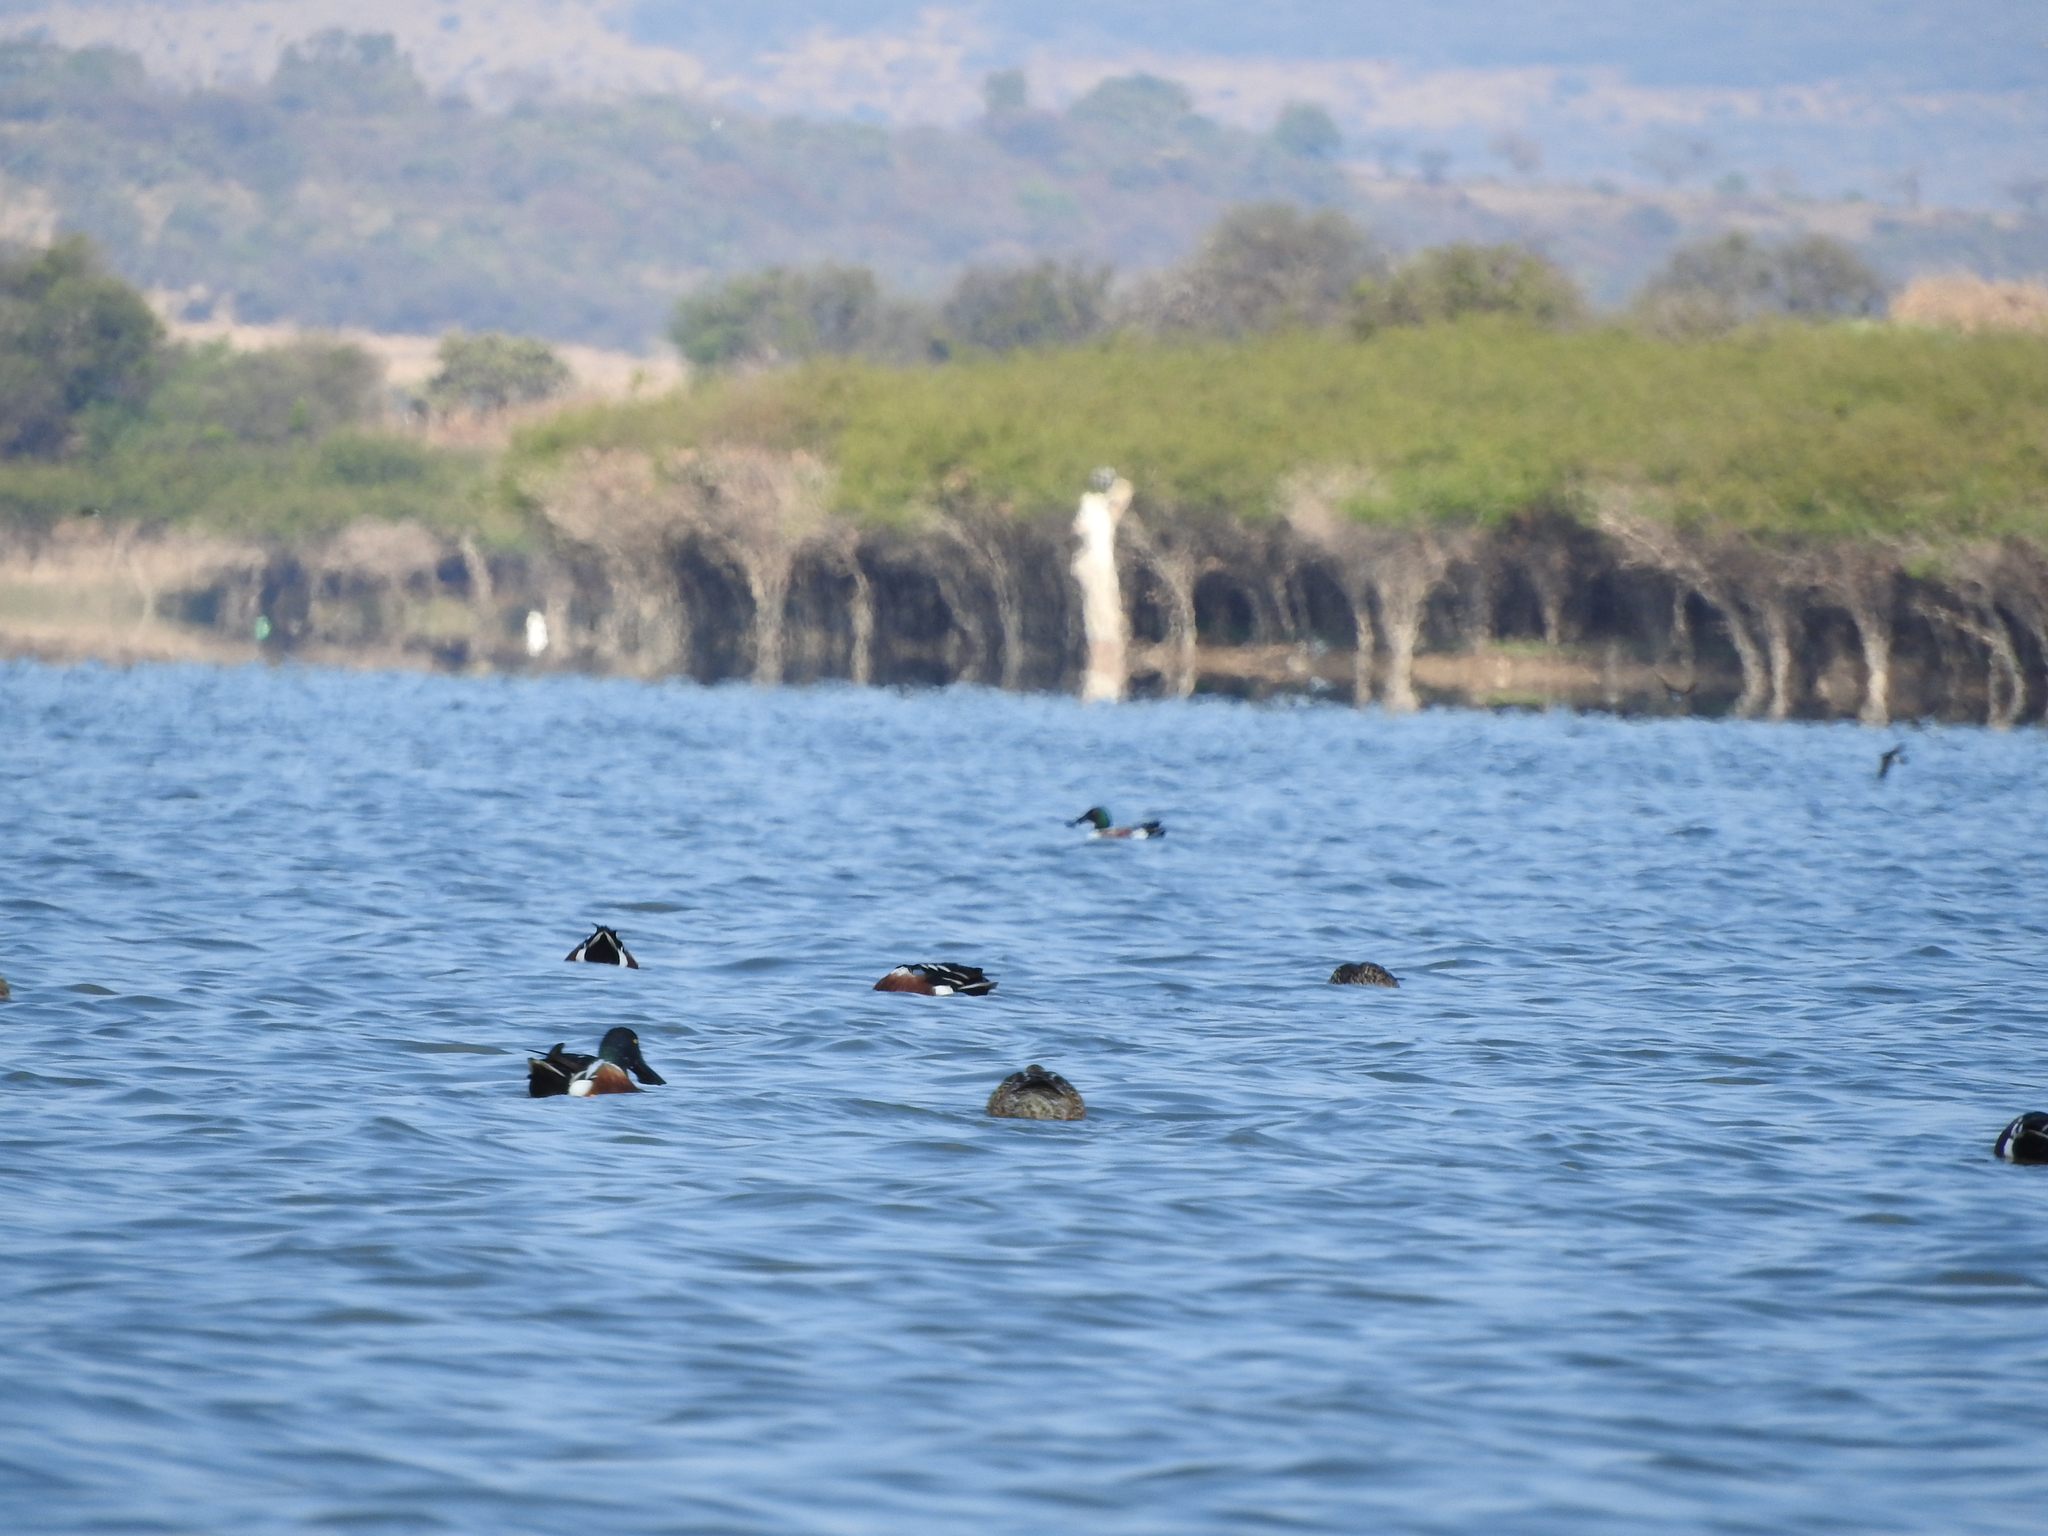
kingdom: Animalia
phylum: Chordata
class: Aves
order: Anseriformes
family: Anatidae
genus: Spatula
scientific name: Spatula clypeata
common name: Northern shoveler
